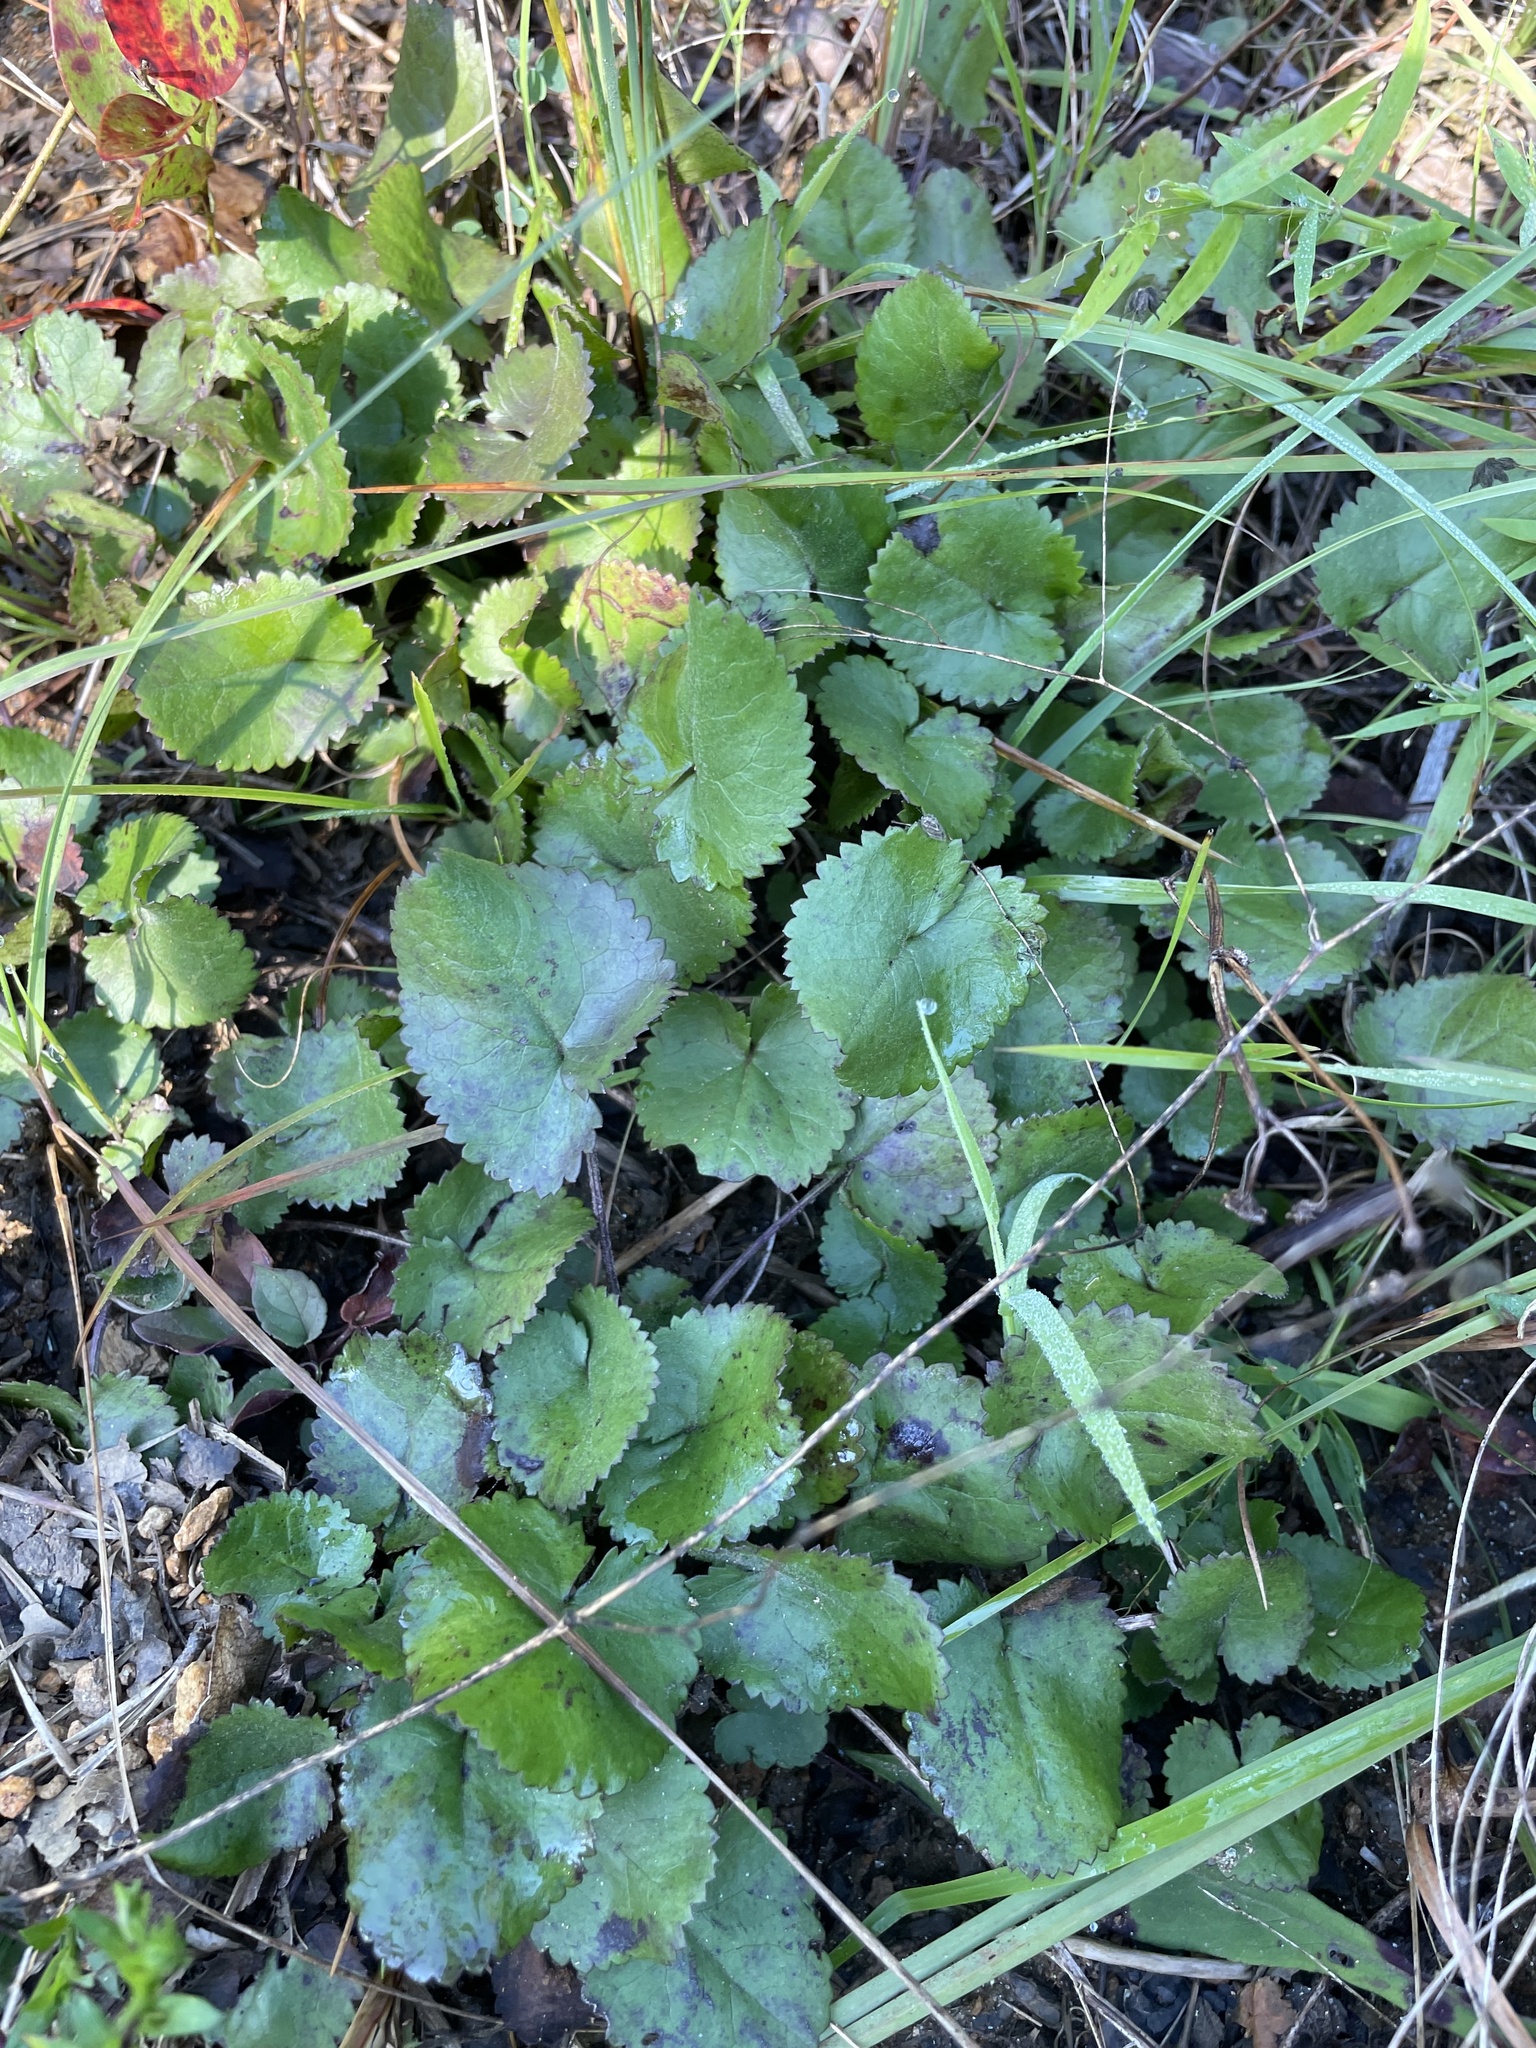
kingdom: Plantae
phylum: Tracheophyta
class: Magnoliopsida
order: Asterales
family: Asteraceae
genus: Packera
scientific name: Packera serpenticola
